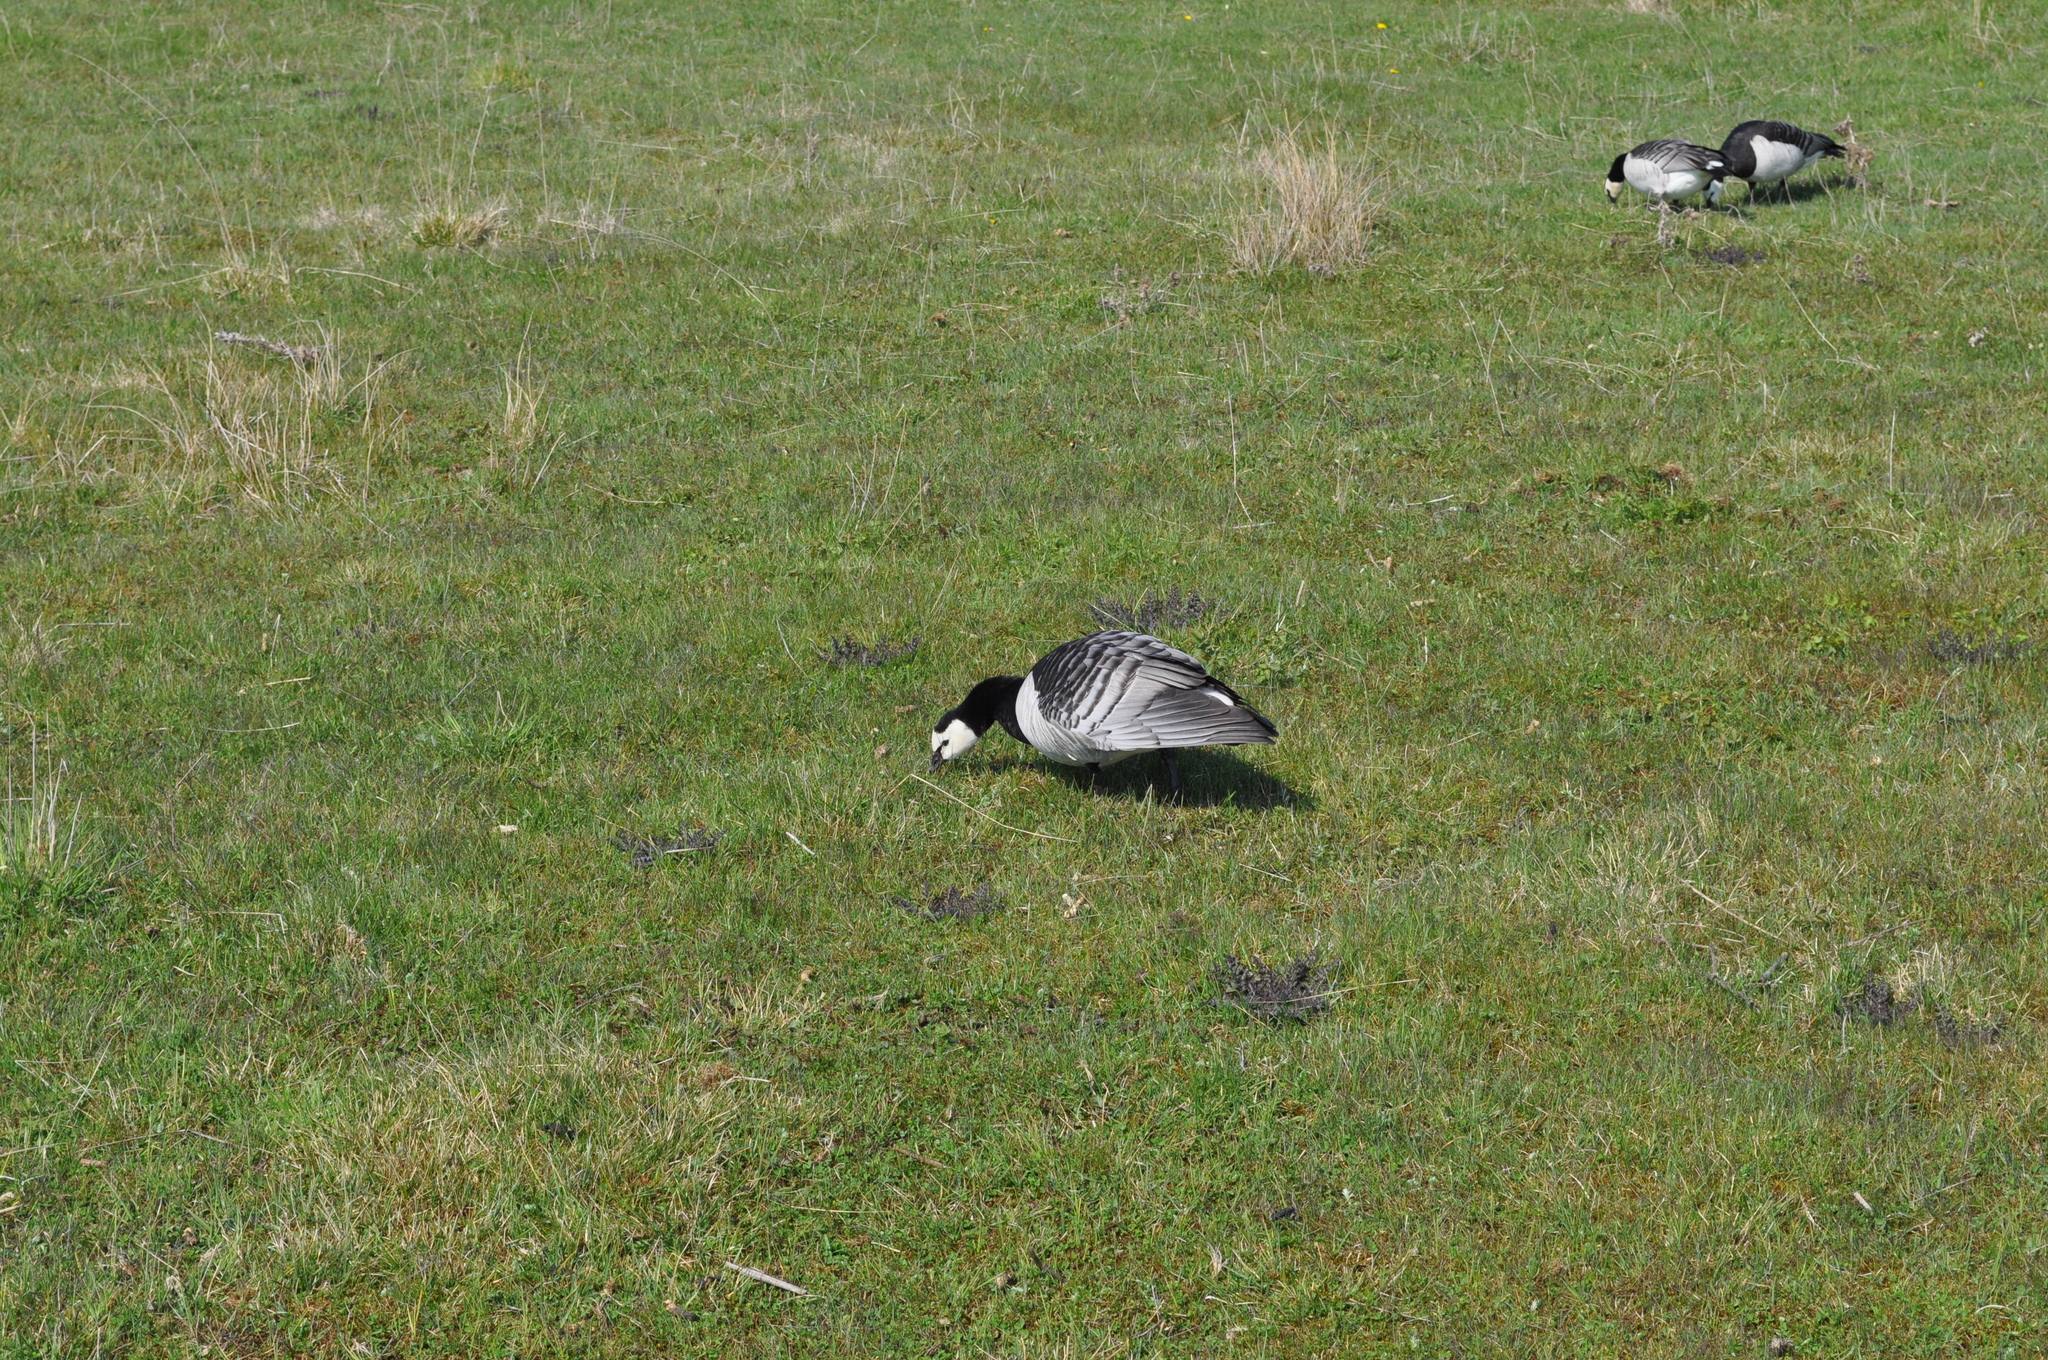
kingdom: Animalia
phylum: Chordata
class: Aves
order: Anseriformes
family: Anatidae
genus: Branta
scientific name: Branta leucopsis
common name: Barnacle goose
